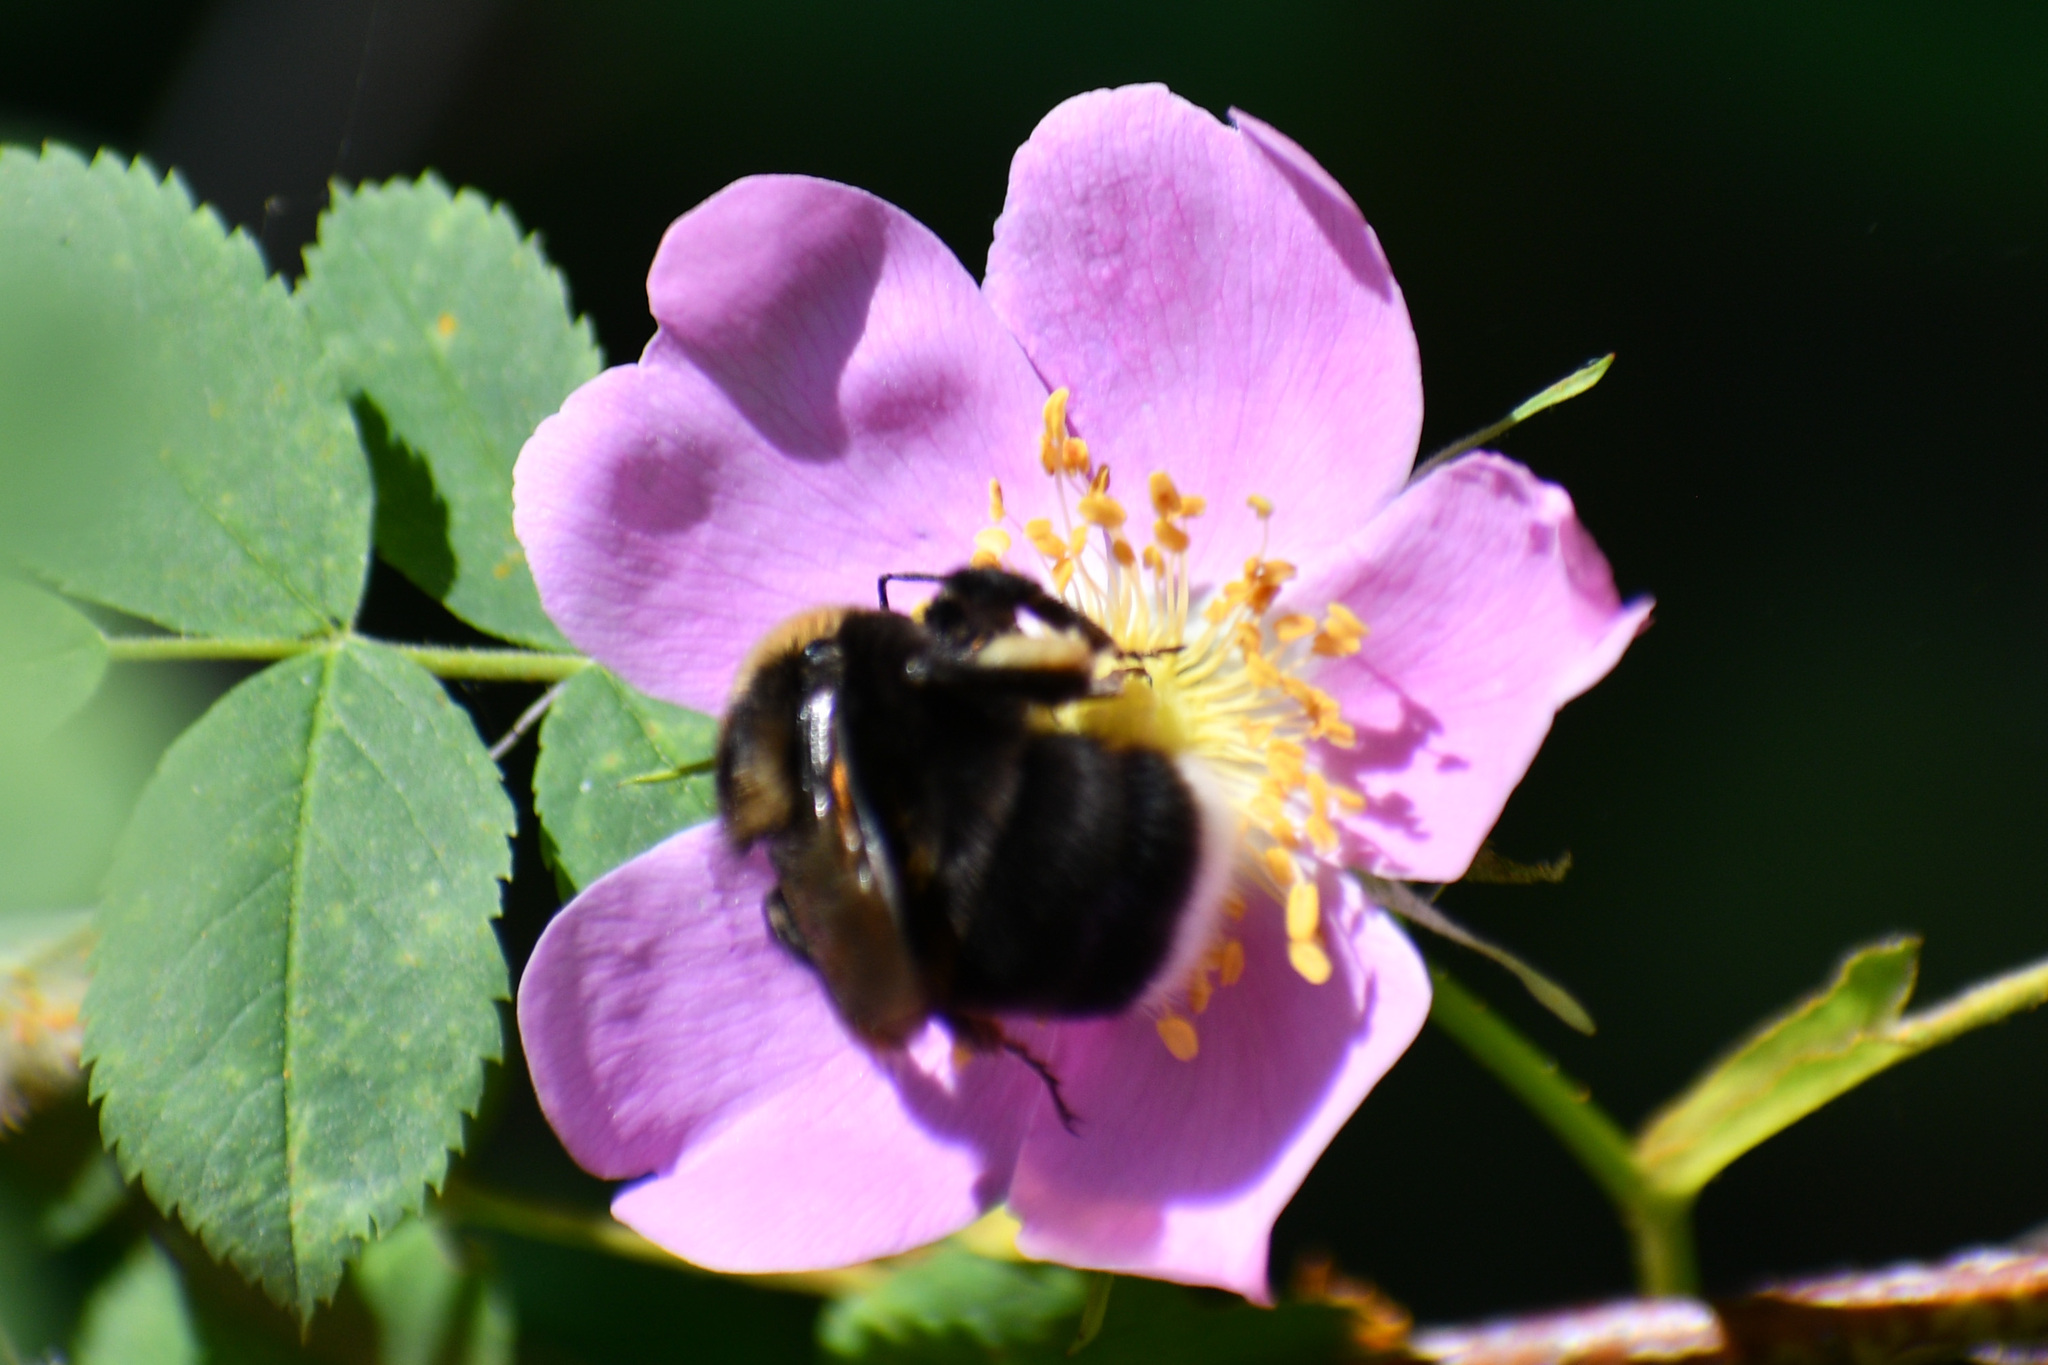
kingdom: Animalia
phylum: Arthropoda
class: Insecta
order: Hymenoptera
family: Apidae
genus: Bombus
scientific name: Bombus occidentalis
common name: Western bumble bee
